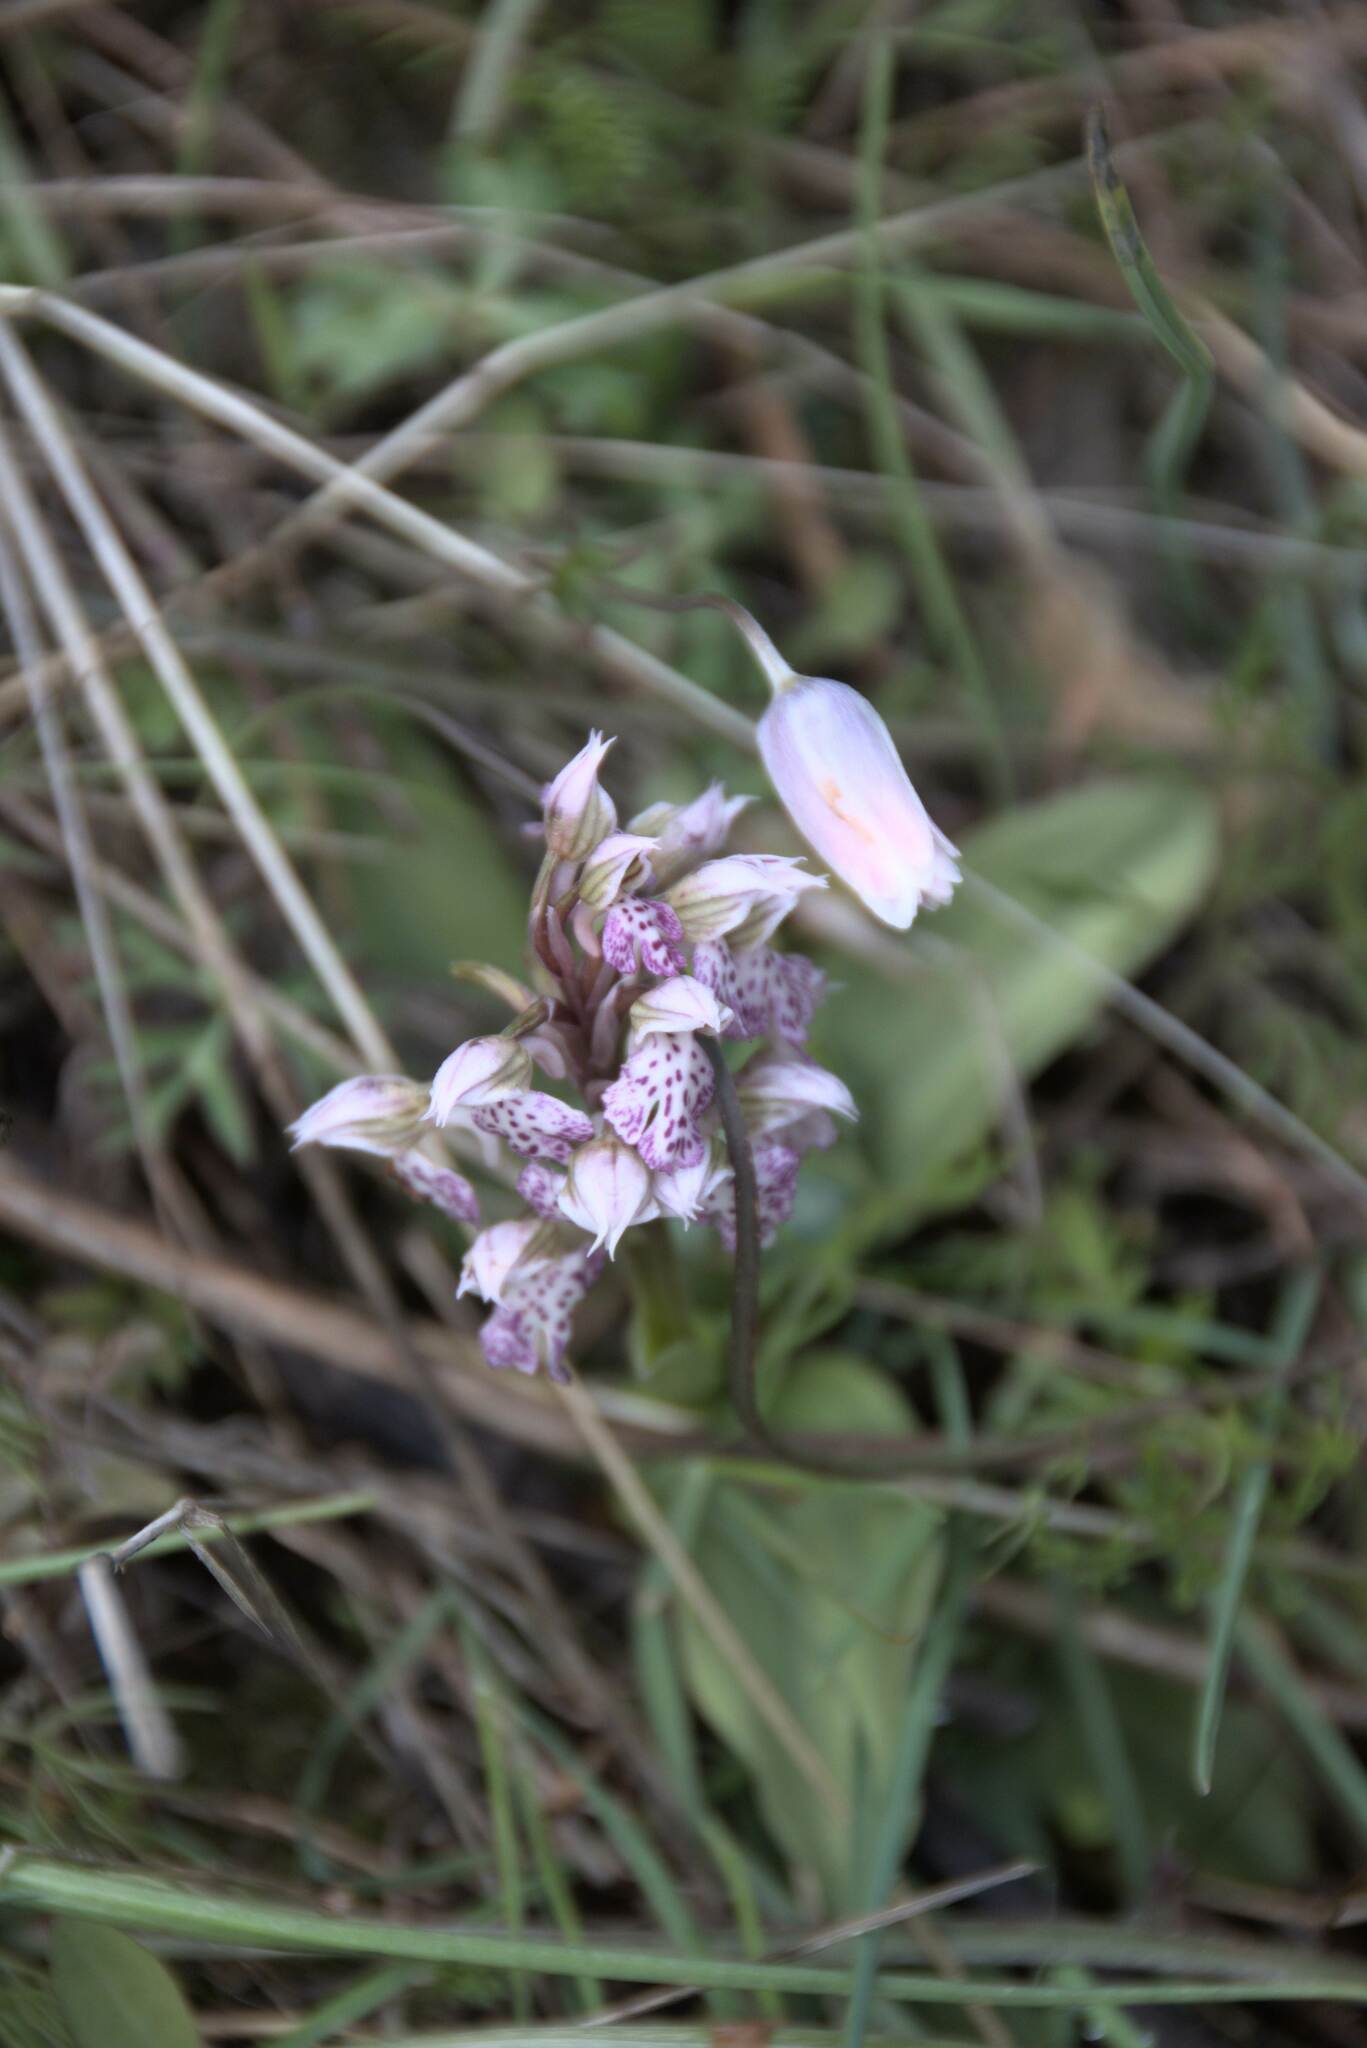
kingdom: Plantae
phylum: Tracheophyta
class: Liliopsida
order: Asparagales
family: Orchidaceae
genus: Neotinea
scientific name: Neotinea lactea
